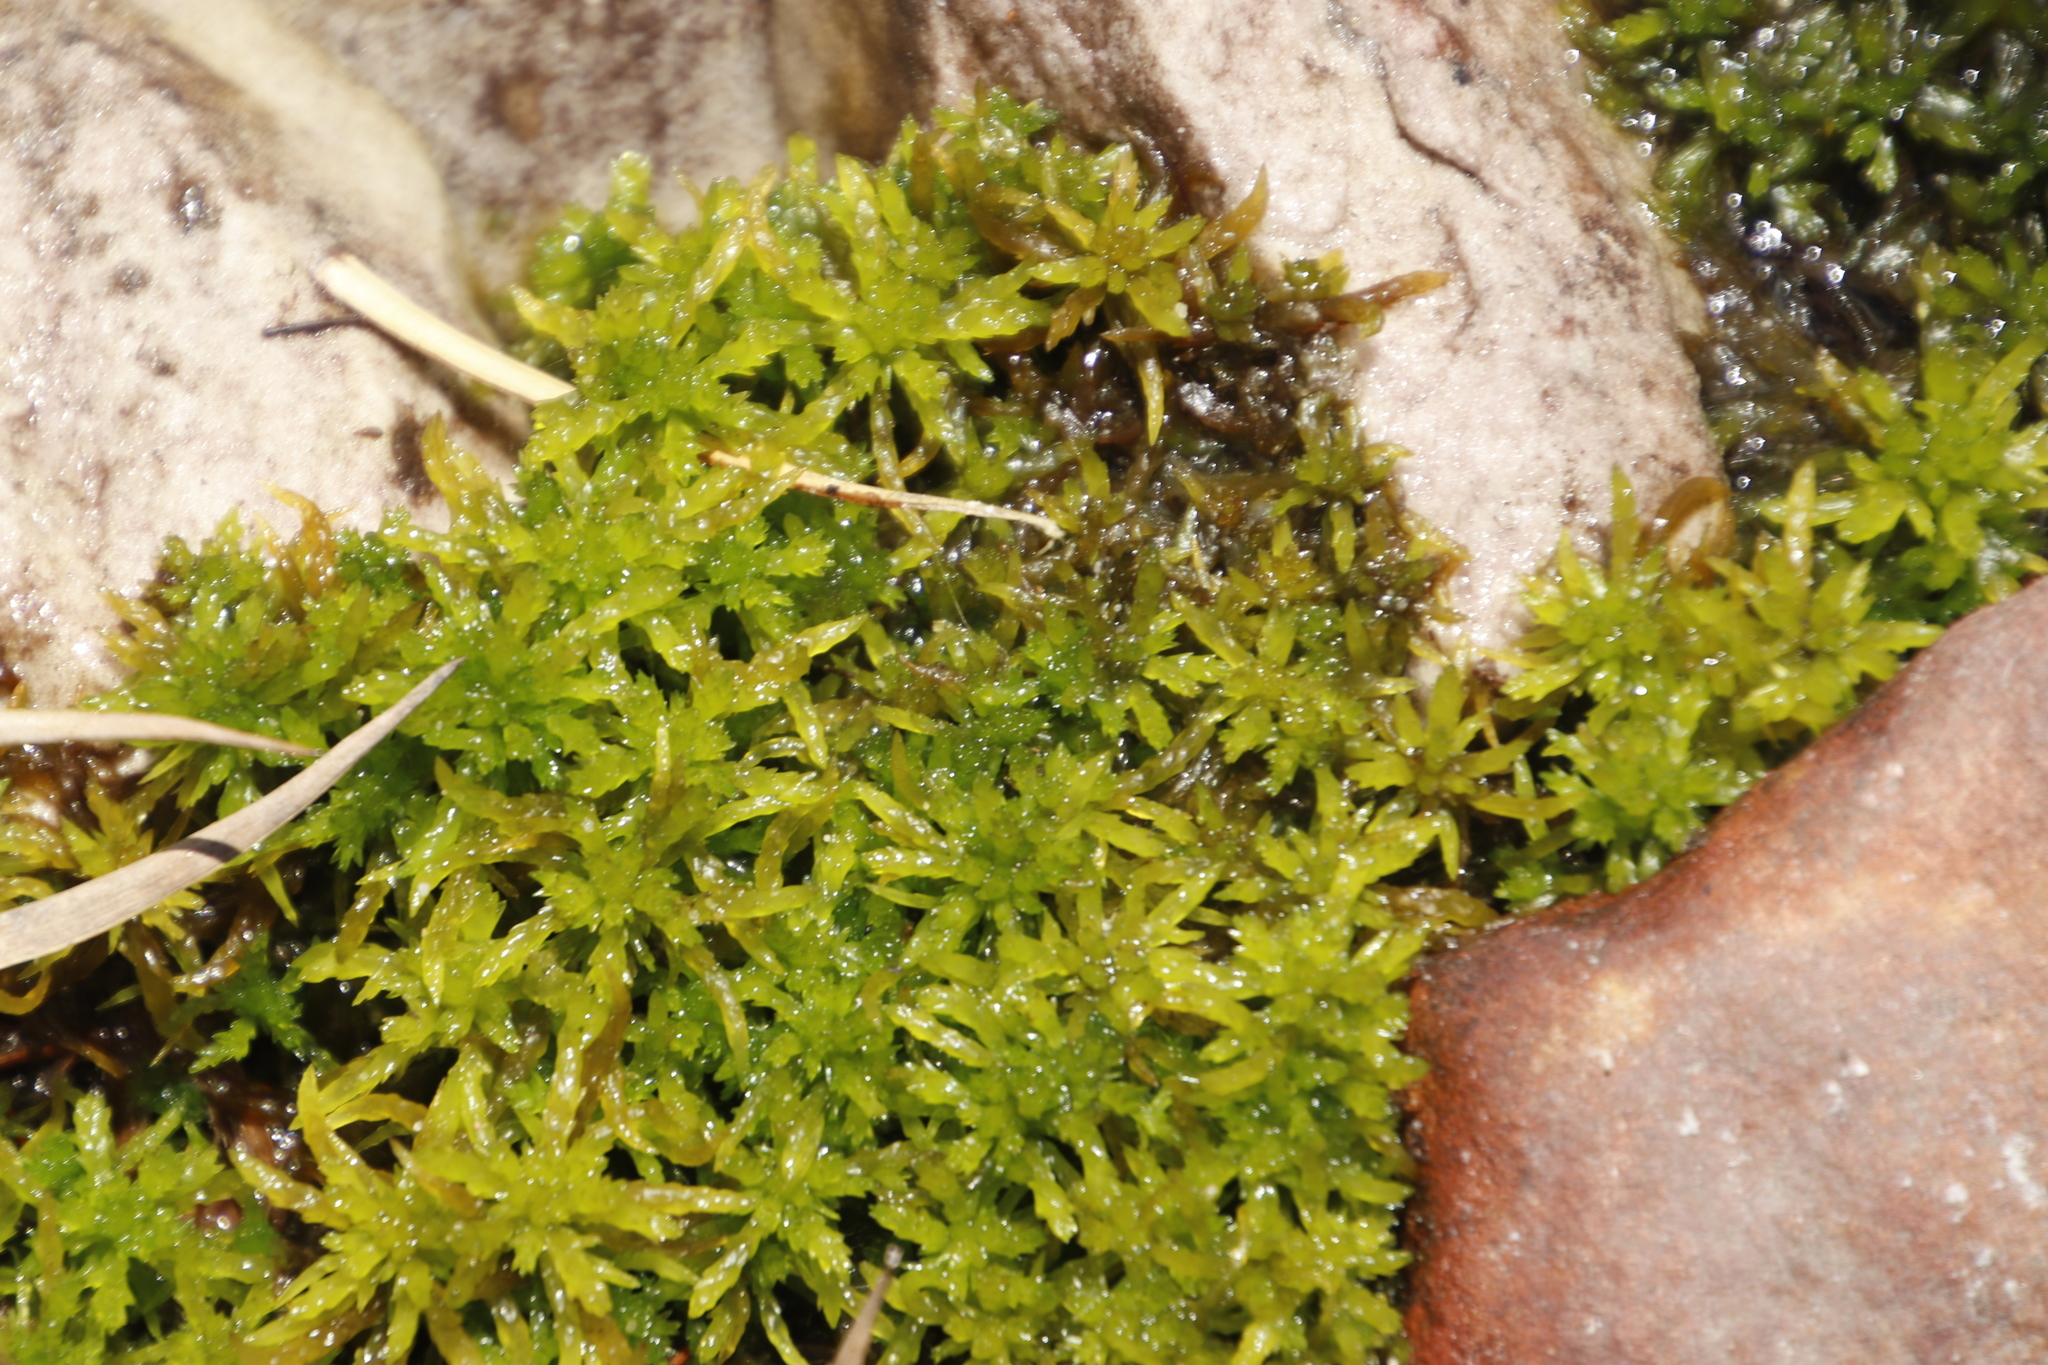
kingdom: Plantae
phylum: Bryophyta
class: Sphagnopsida
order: Sphagnales
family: Sphagnaceae
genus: Sphagnum
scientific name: Sphagnum truncatum
